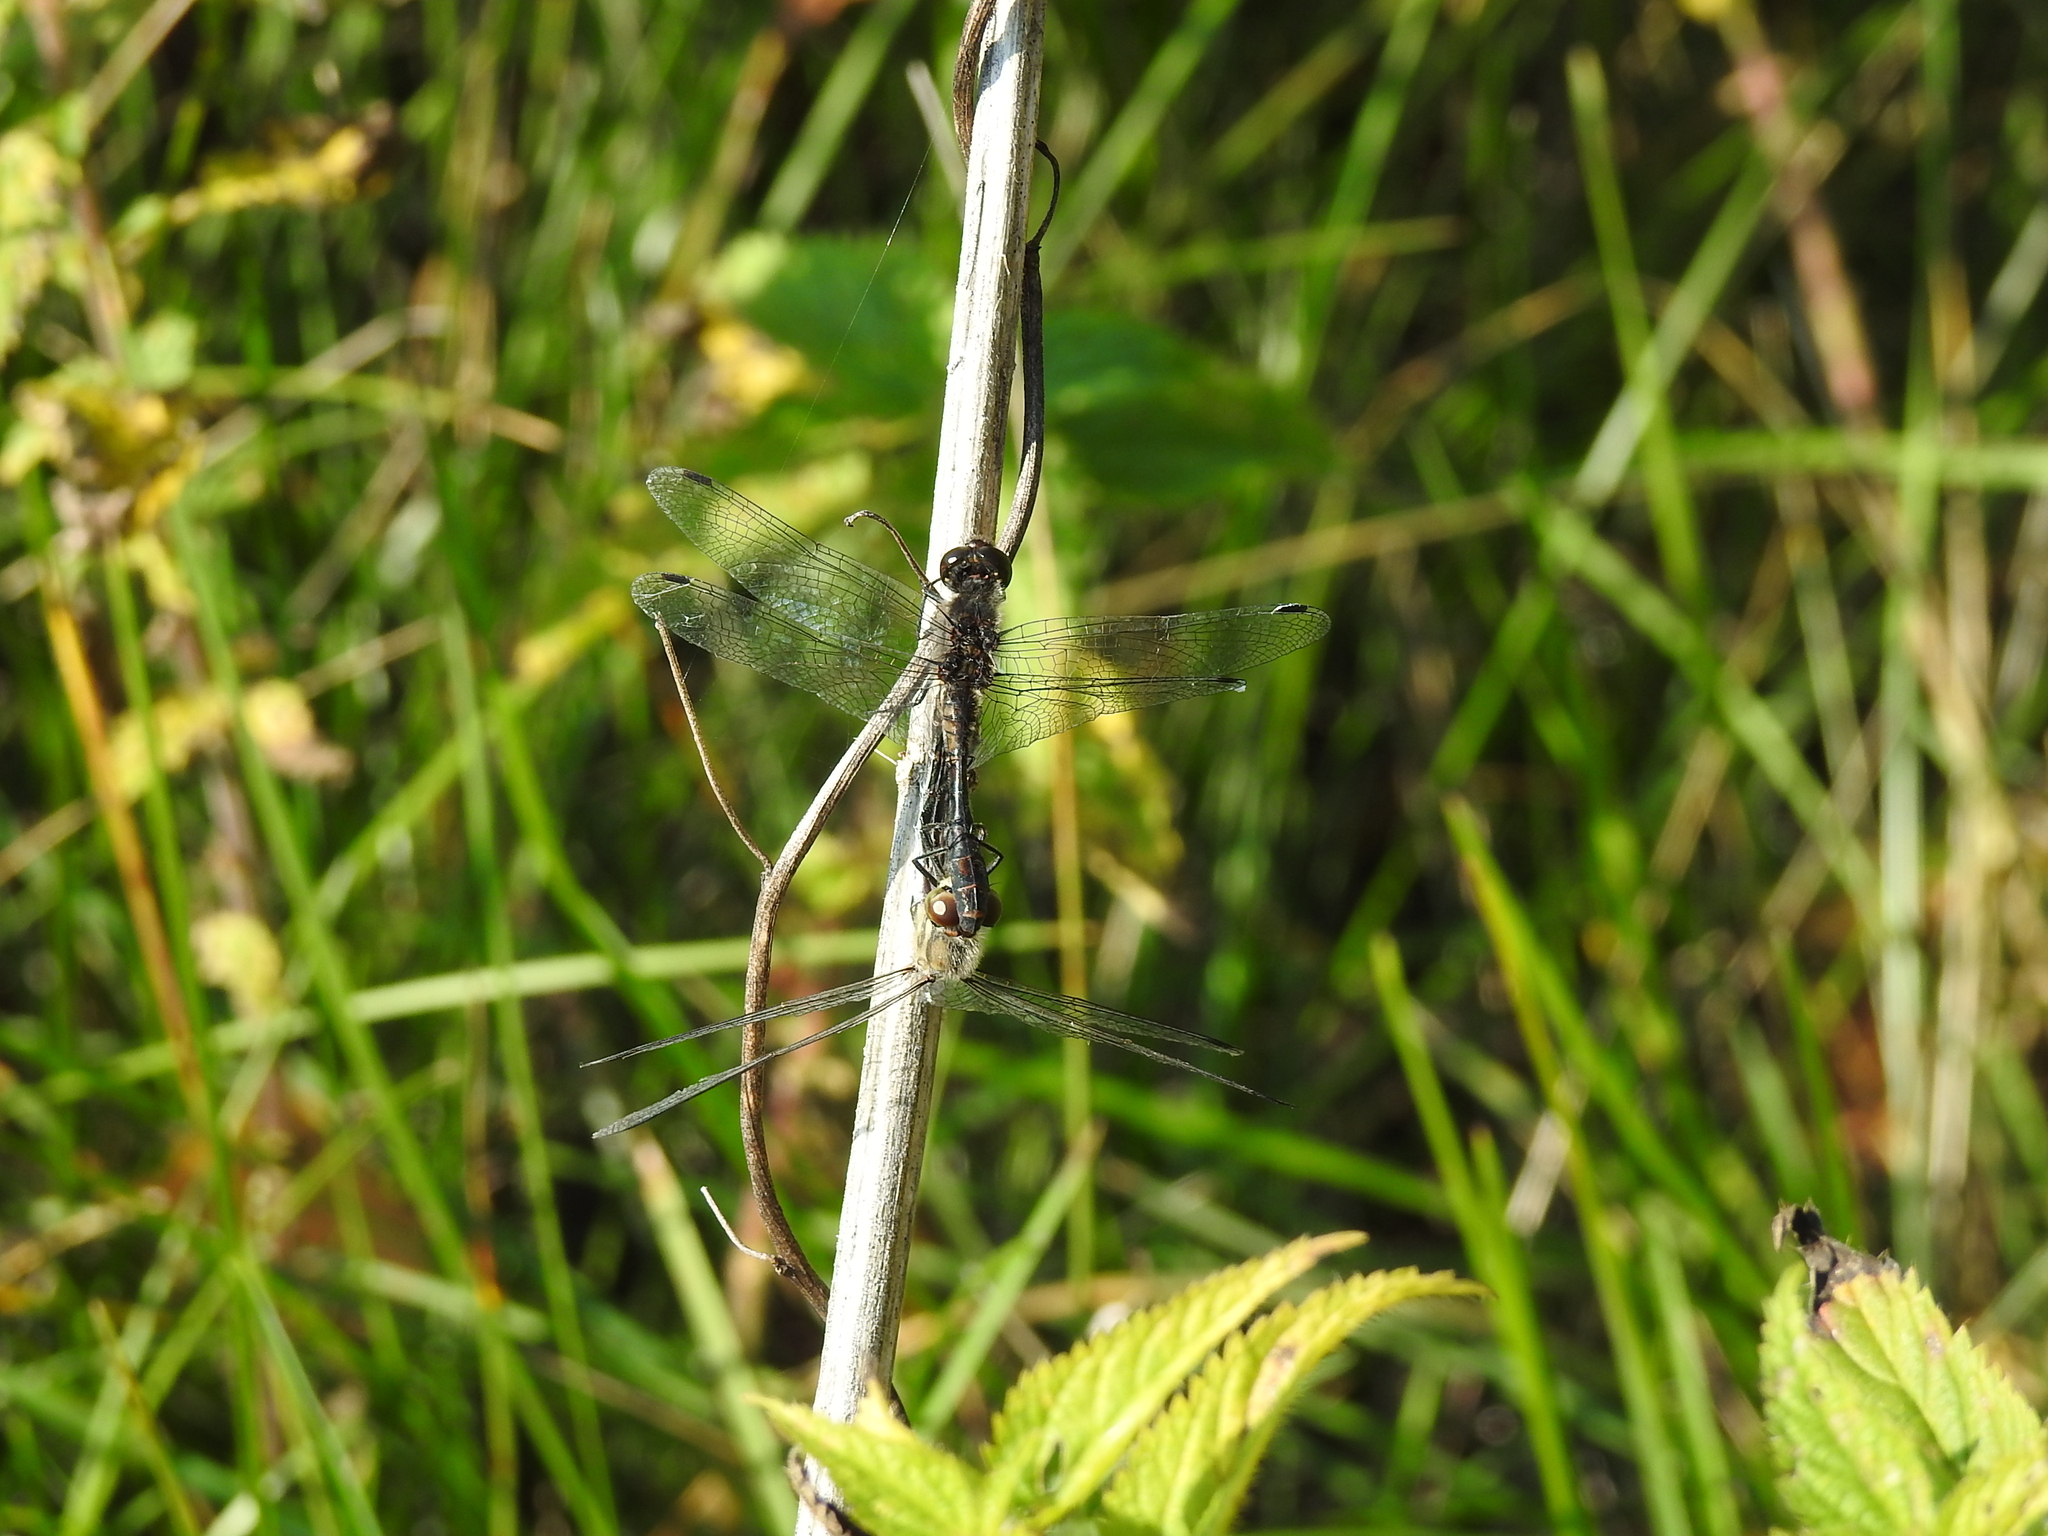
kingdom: Animalia
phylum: Arthropoda
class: Insecta
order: Odonata
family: Libellulidae
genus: Sympetrum
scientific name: Sympetrum danae
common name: Black darter
